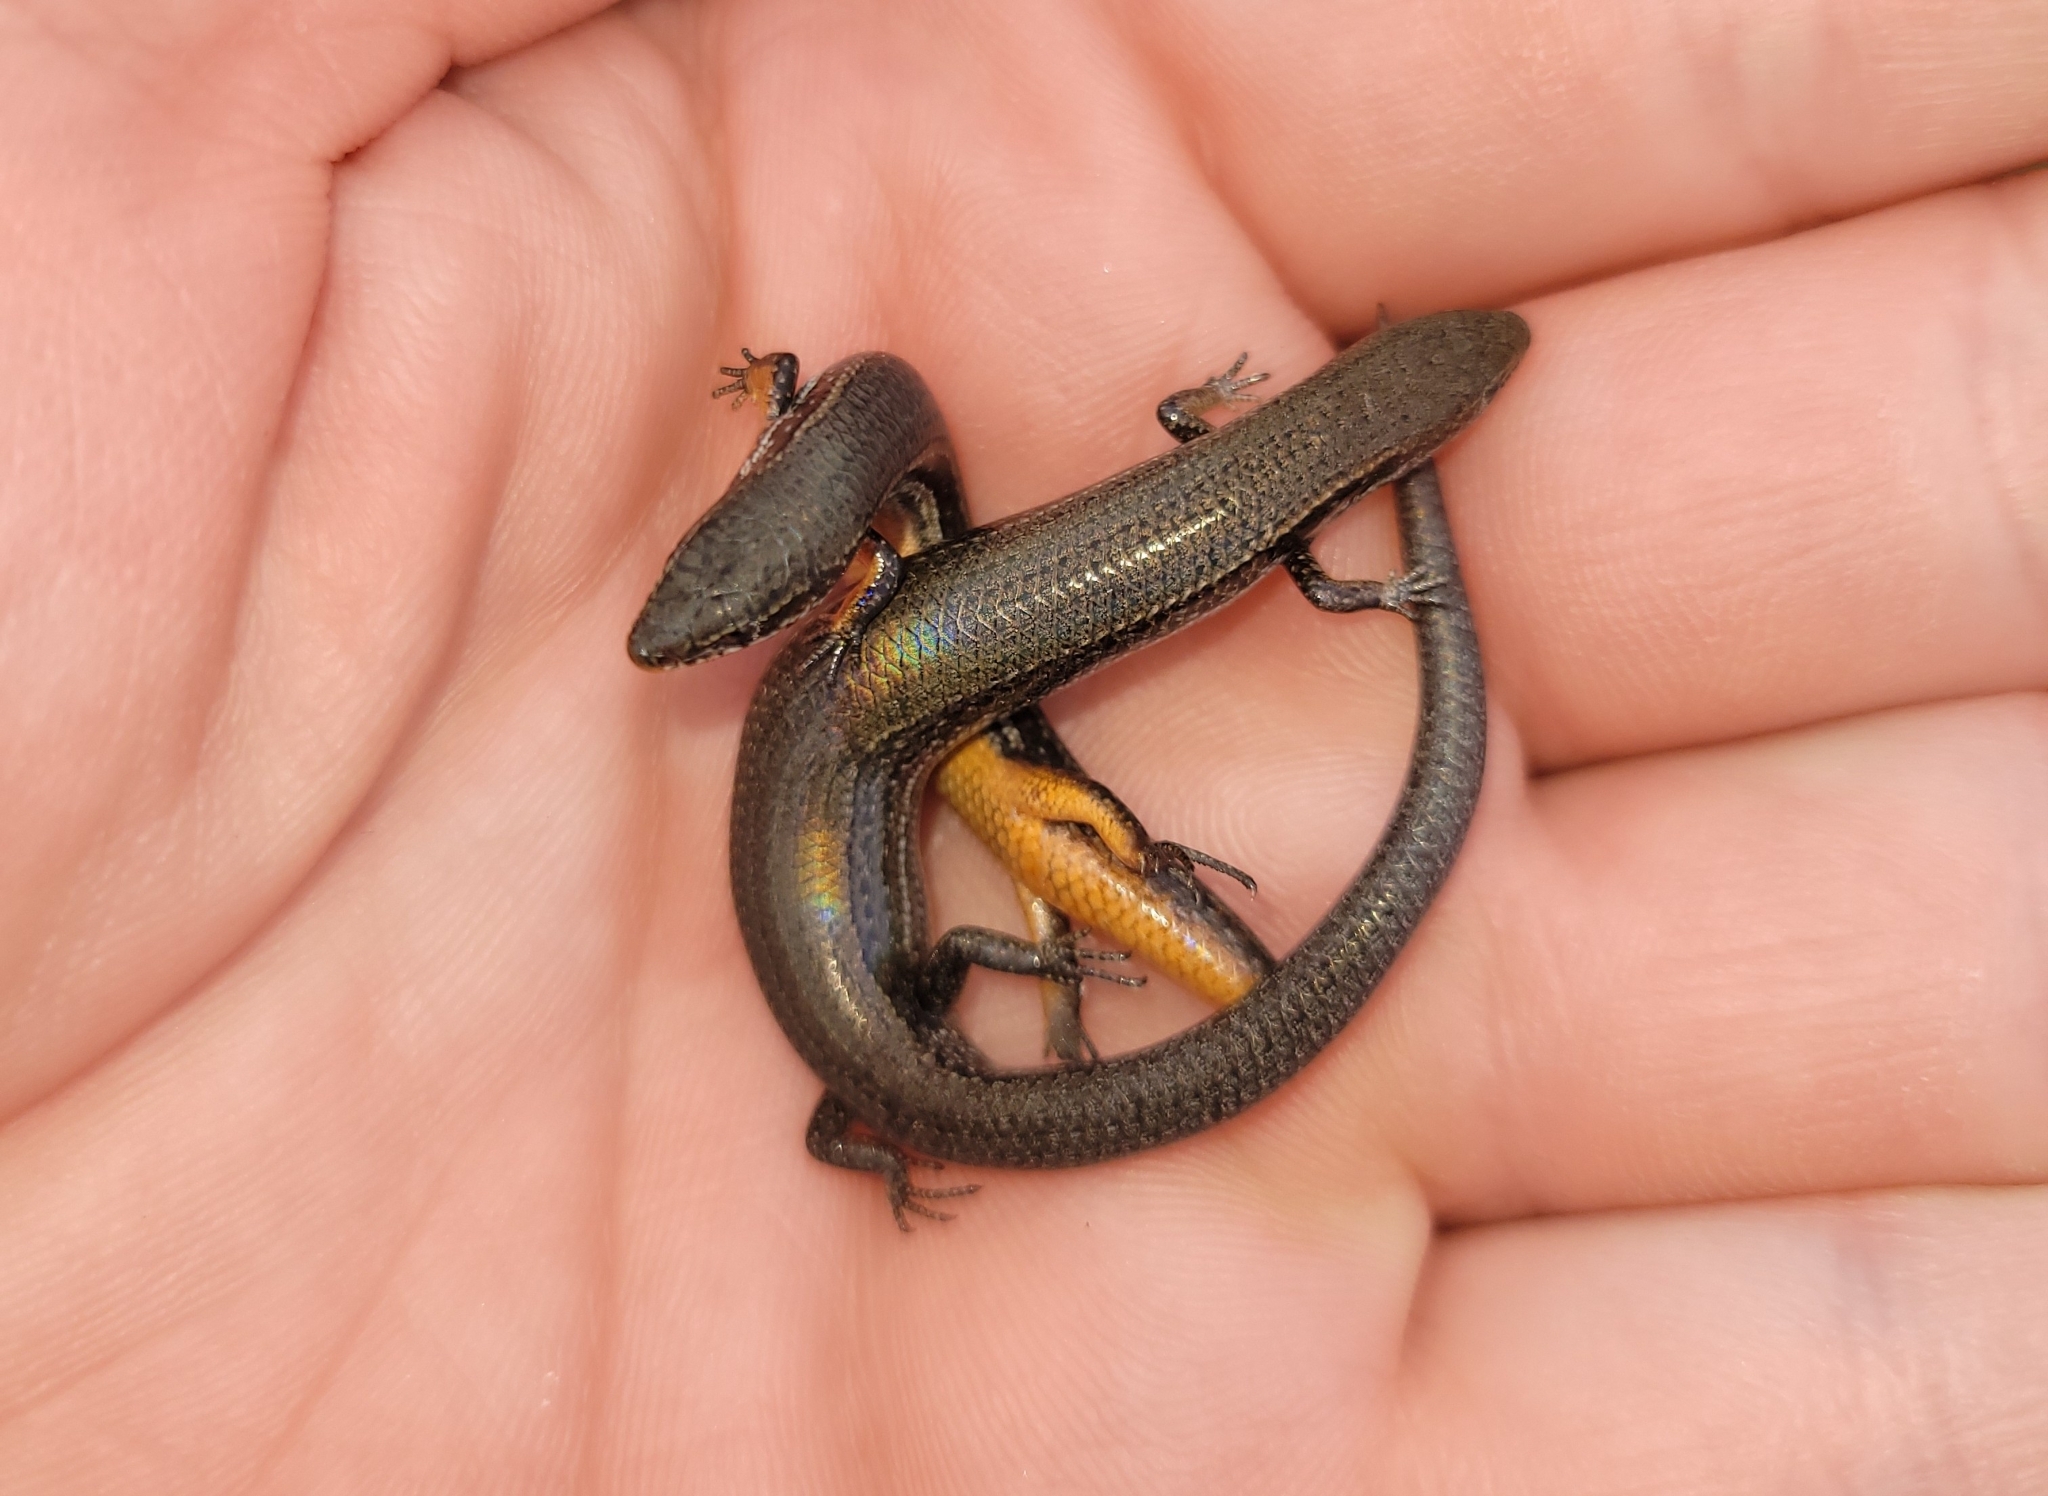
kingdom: Animalia
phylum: Chordata
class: Squamata
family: Scincidae
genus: Panaspis
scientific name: Panaspis wahlbergii
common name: Angolan snake-eyed skink
